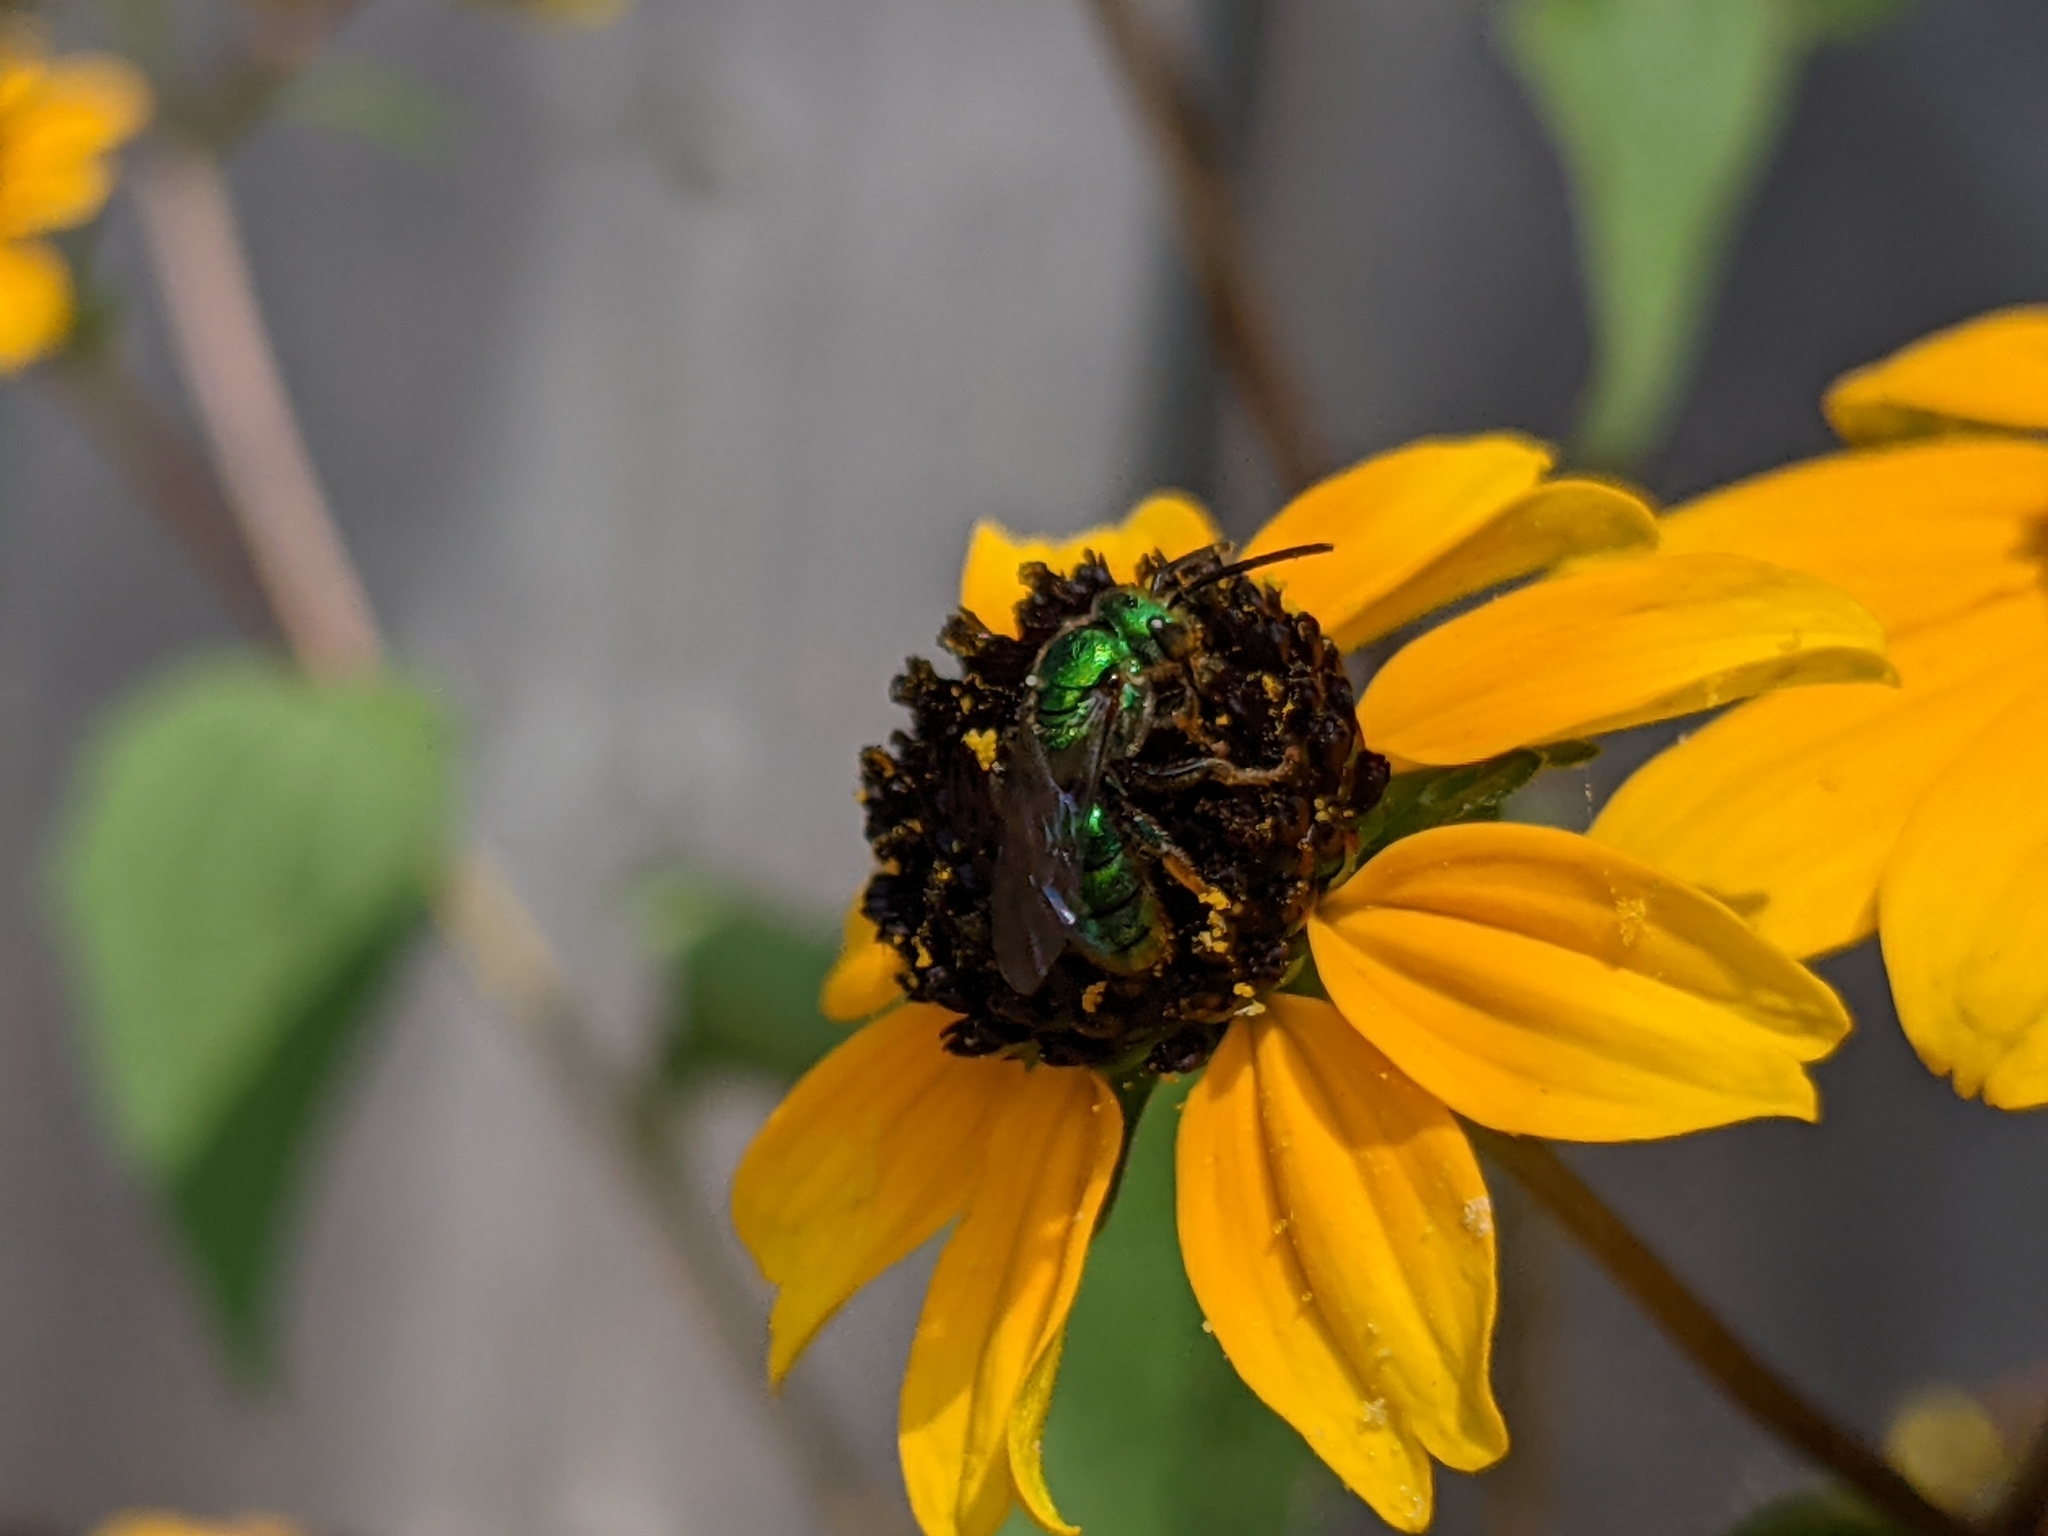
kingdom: Animalia
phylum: Arthropoda
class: Insecta
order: Hymenoptera
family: Halictidae
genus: Augochlora
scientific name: Augochlora pura
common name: Pure green sweat bee
